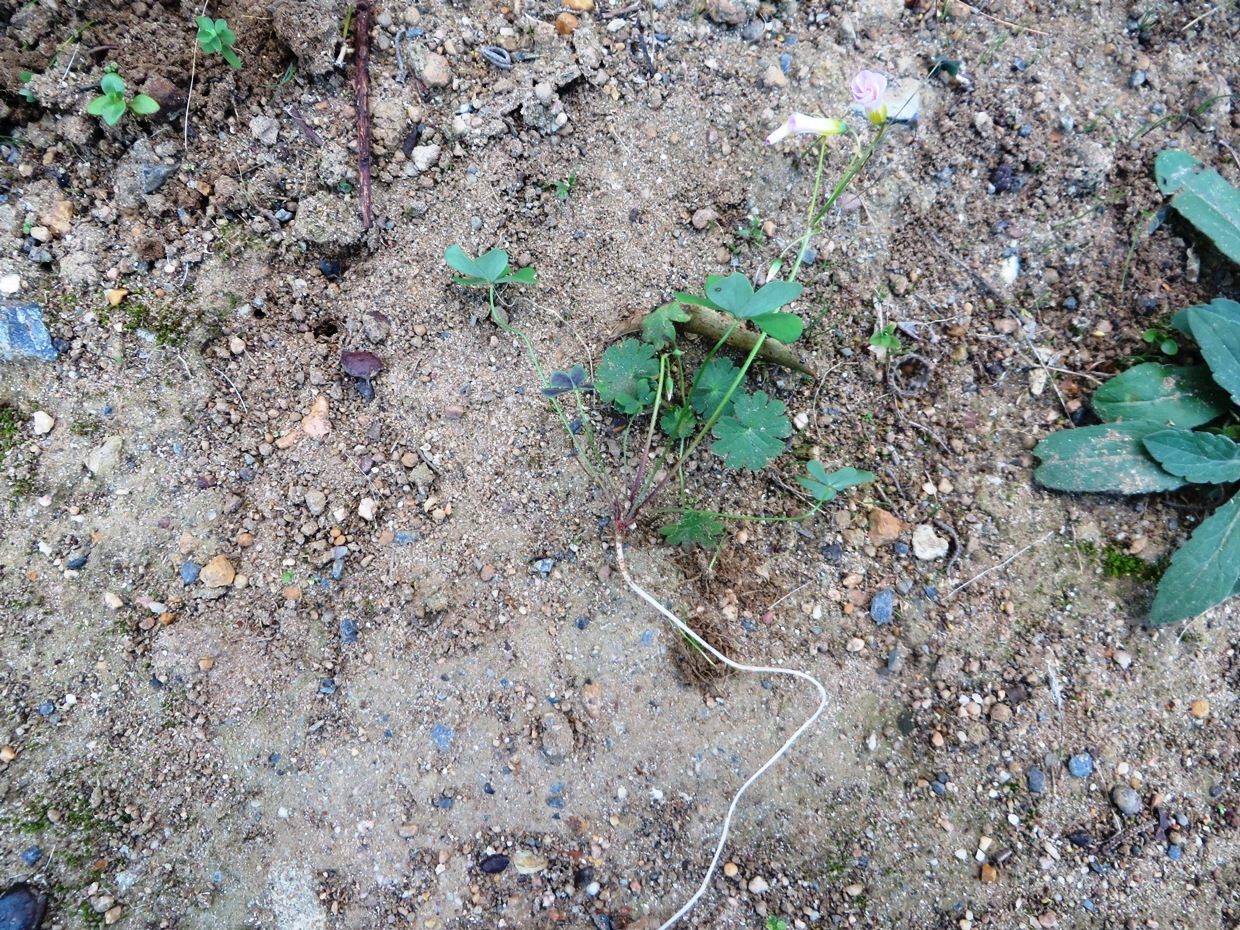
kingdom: Plantae
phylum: Tracheophyta
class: Magnoliopsida
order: Oxalidales
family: Oxalidaceae
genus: Oxalis
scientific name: Oxalis caprina
